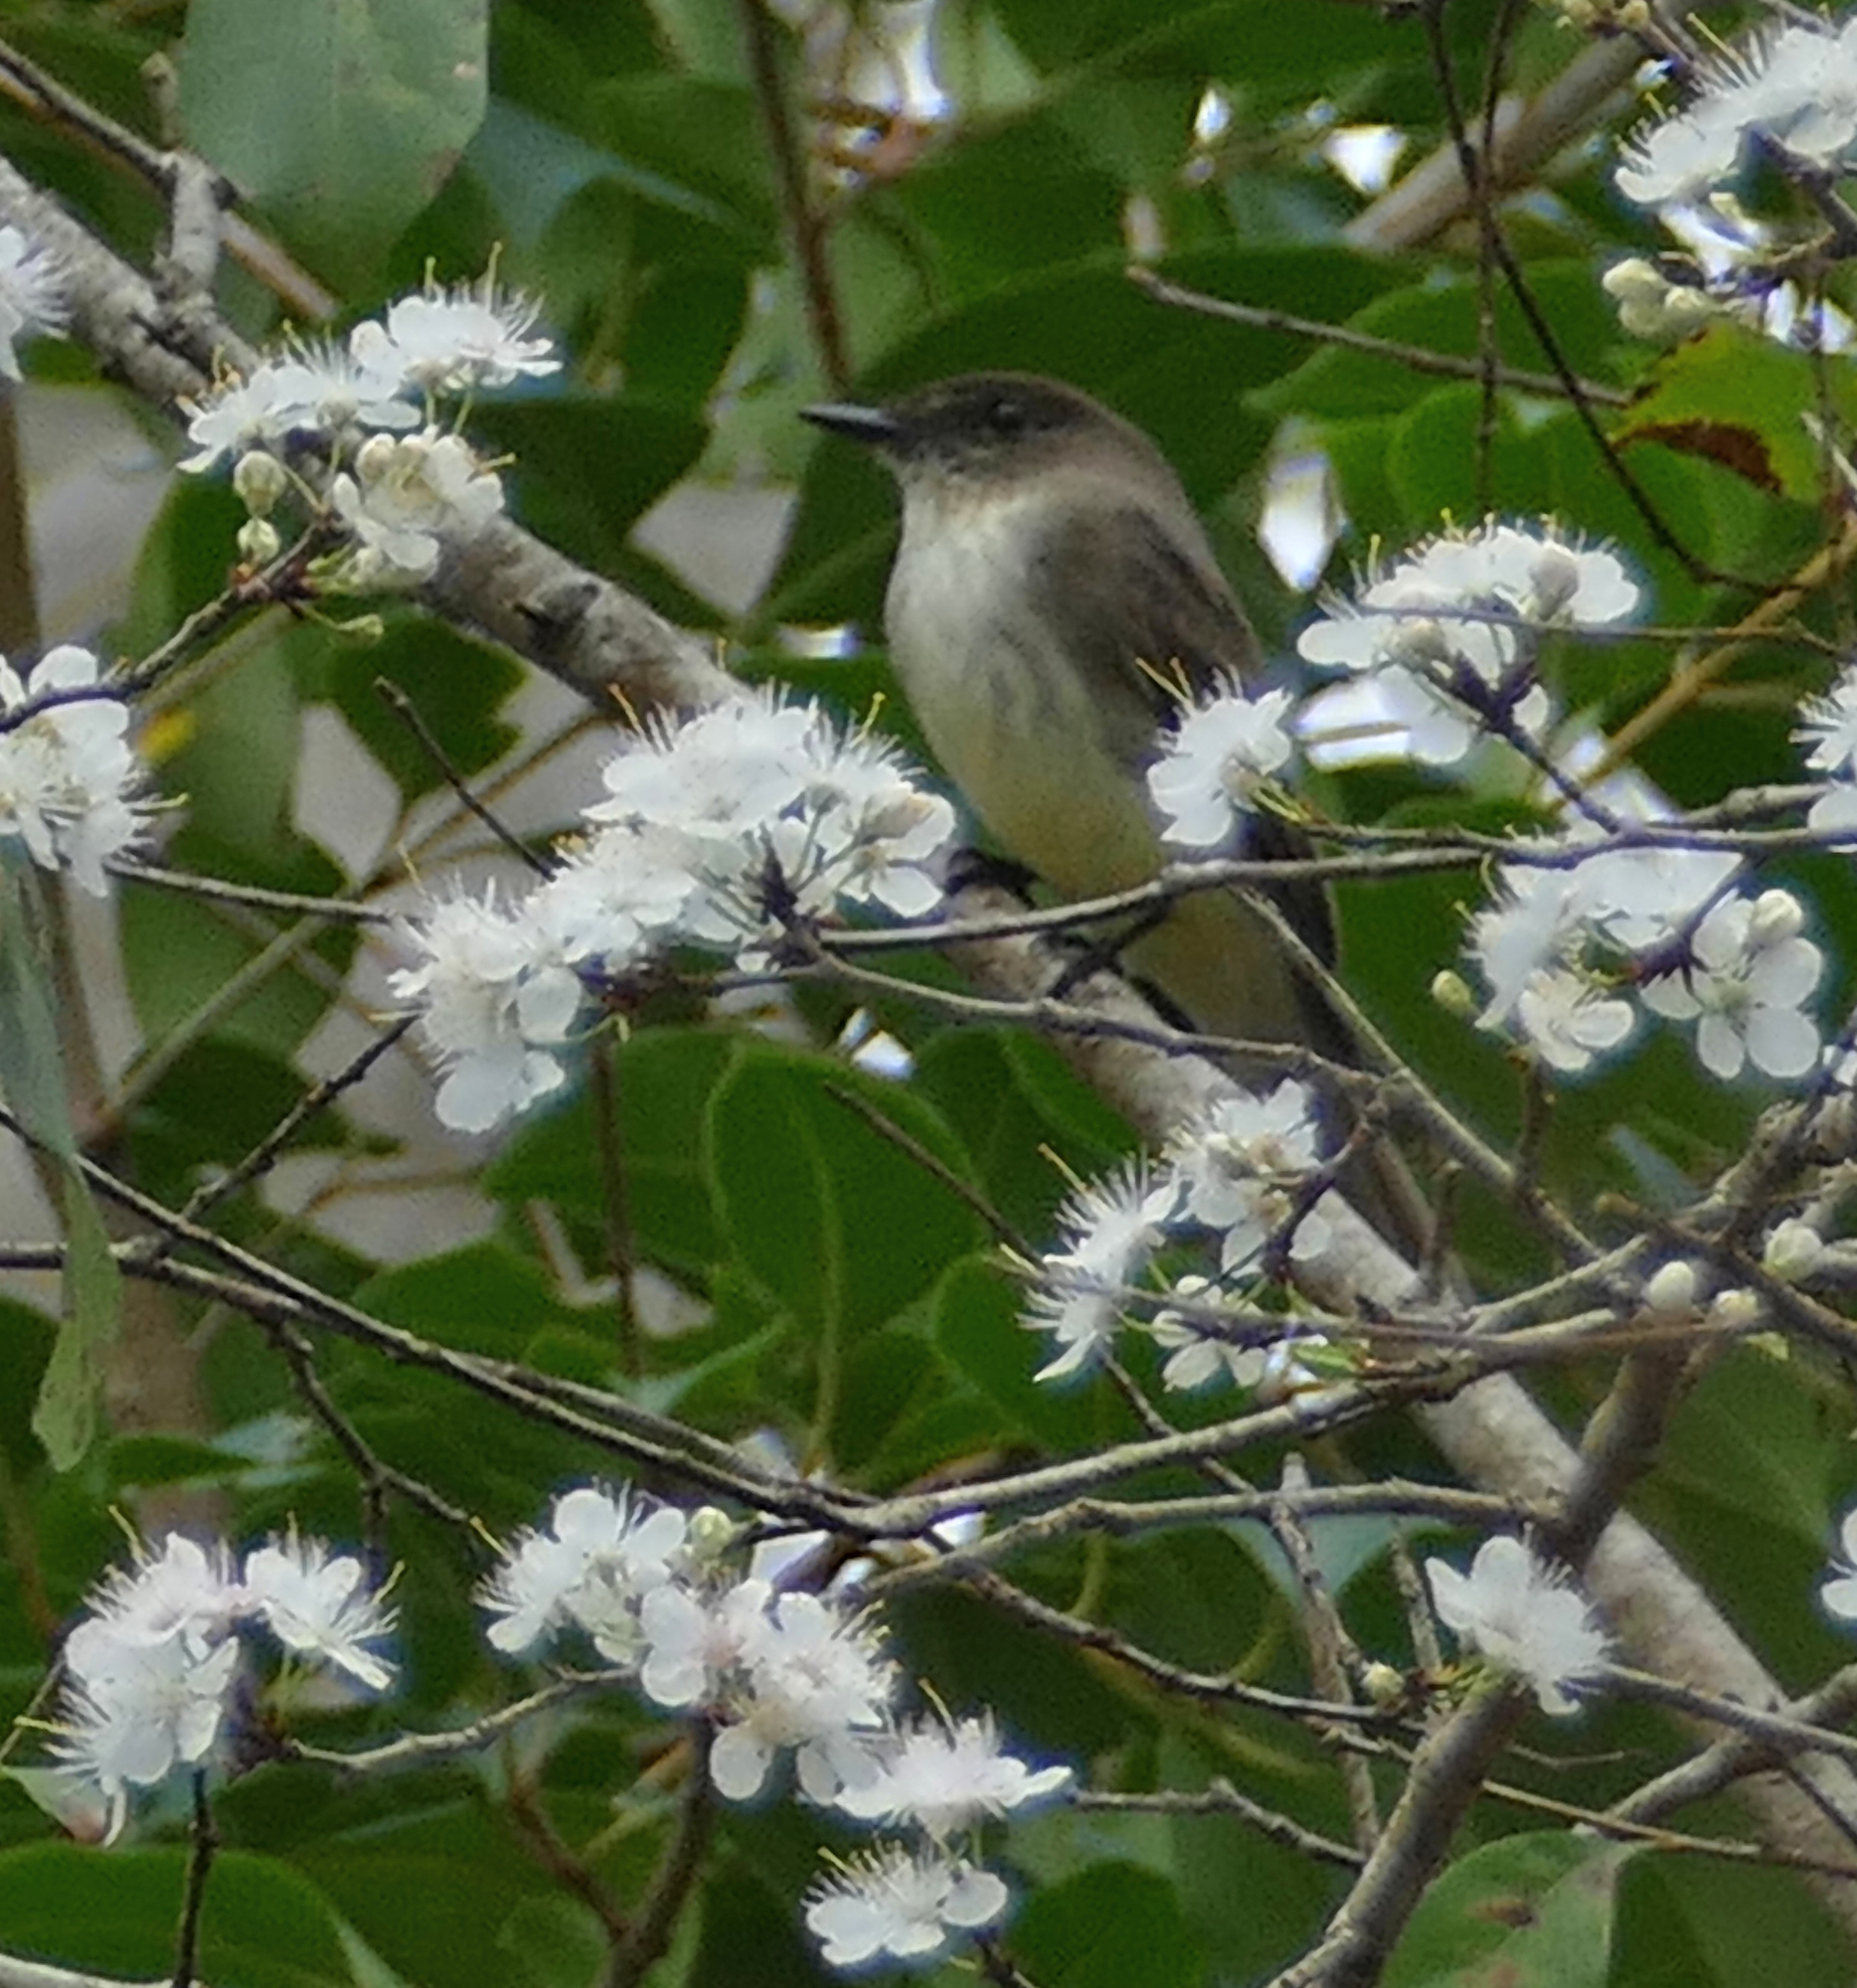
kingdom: Animalia
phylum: Chordata
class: Aves
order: Passeriformes
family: Tyrannidae
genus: Sayornis
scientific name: Sayornis phoebe
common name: Eastern phoebe
